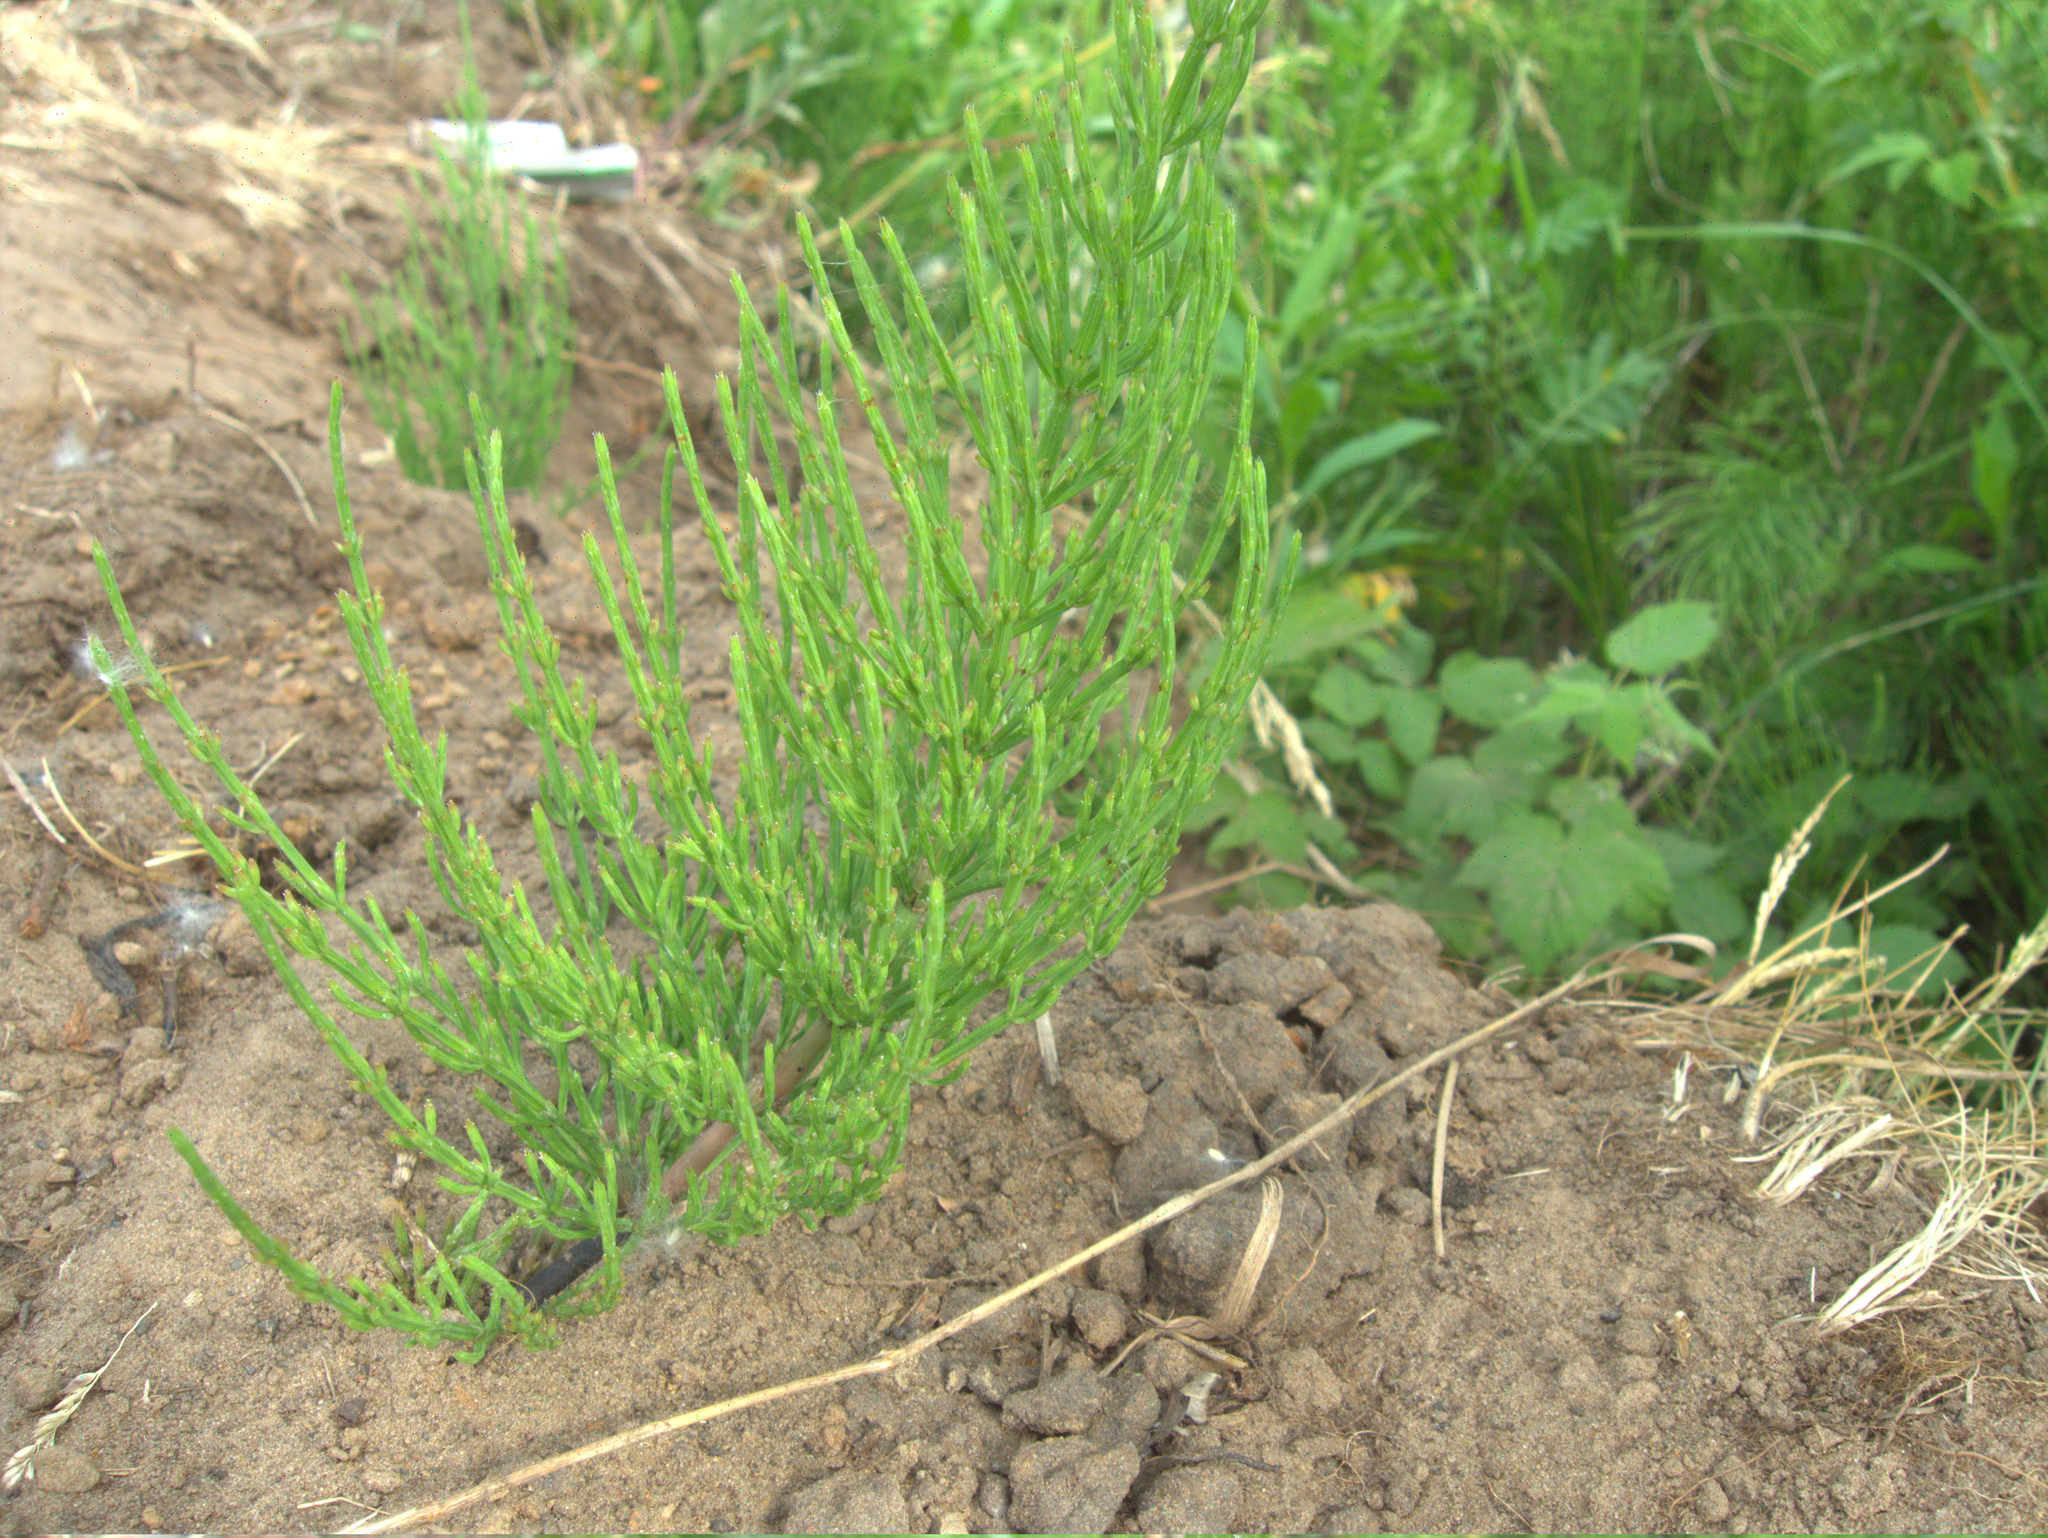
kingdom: Plantae
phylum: Tracheophyta
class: Polypodiopsida
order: Equisetales
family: Equisetaceae
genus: Equisetum
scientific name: Equisetum arvense
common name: Field horsetail
